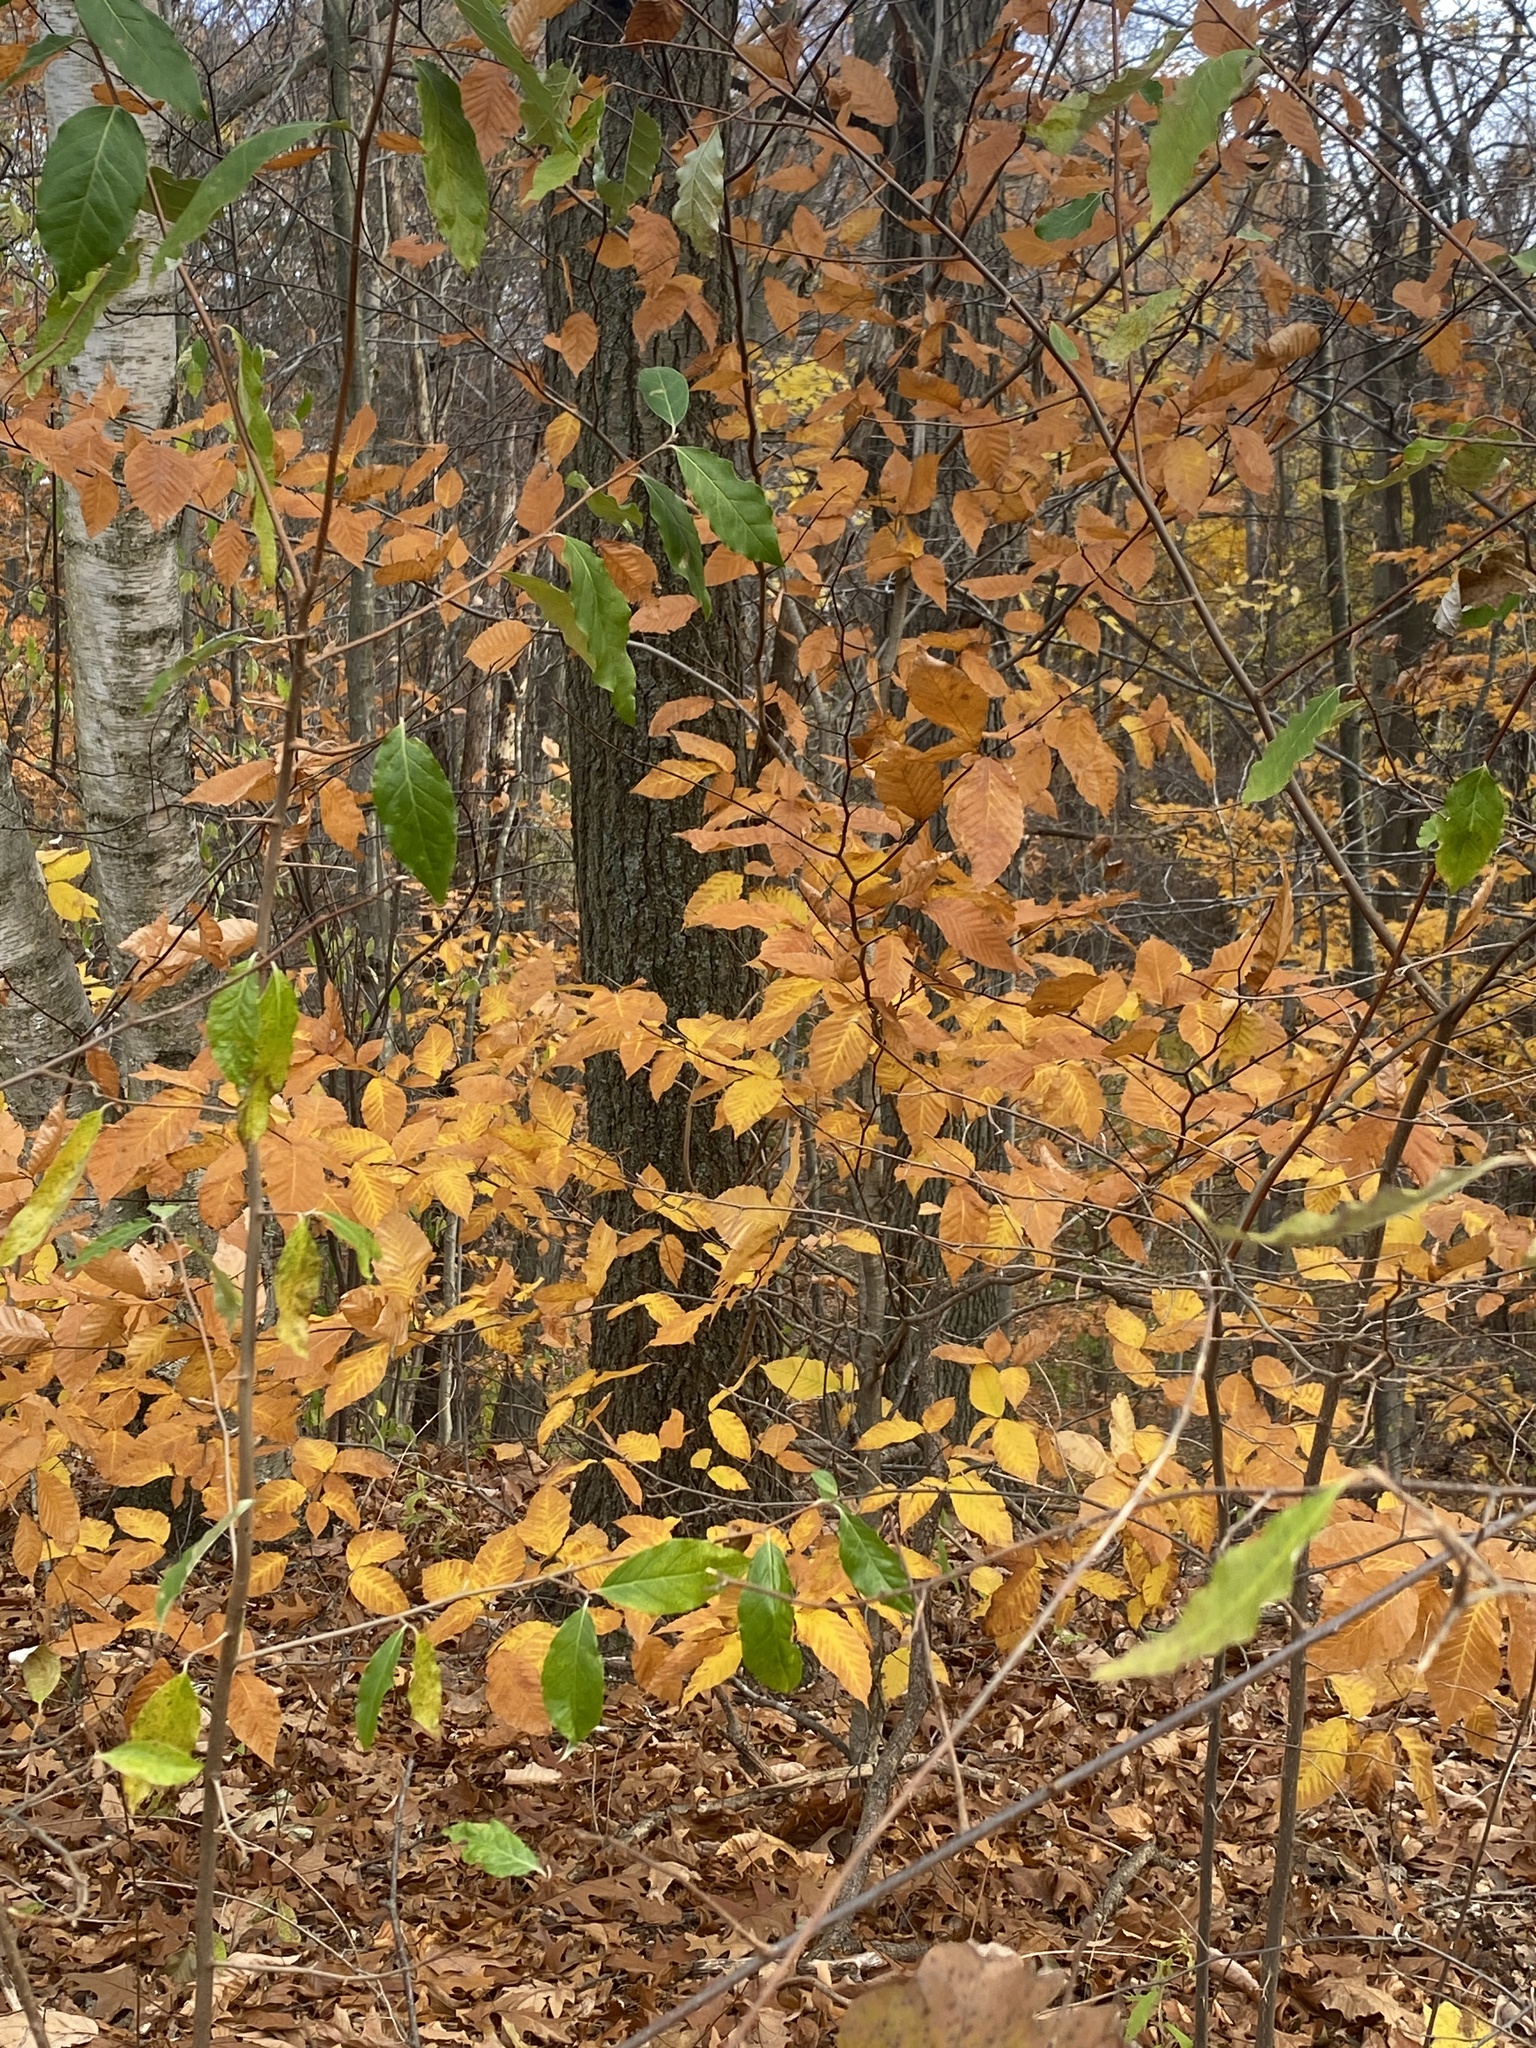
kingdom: Plantae
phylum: Tracheophyta
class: Magnoliopsida
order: Fagales
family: Fagaceae
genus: Fagus
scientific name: Fagus grandifolia
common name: American beech
